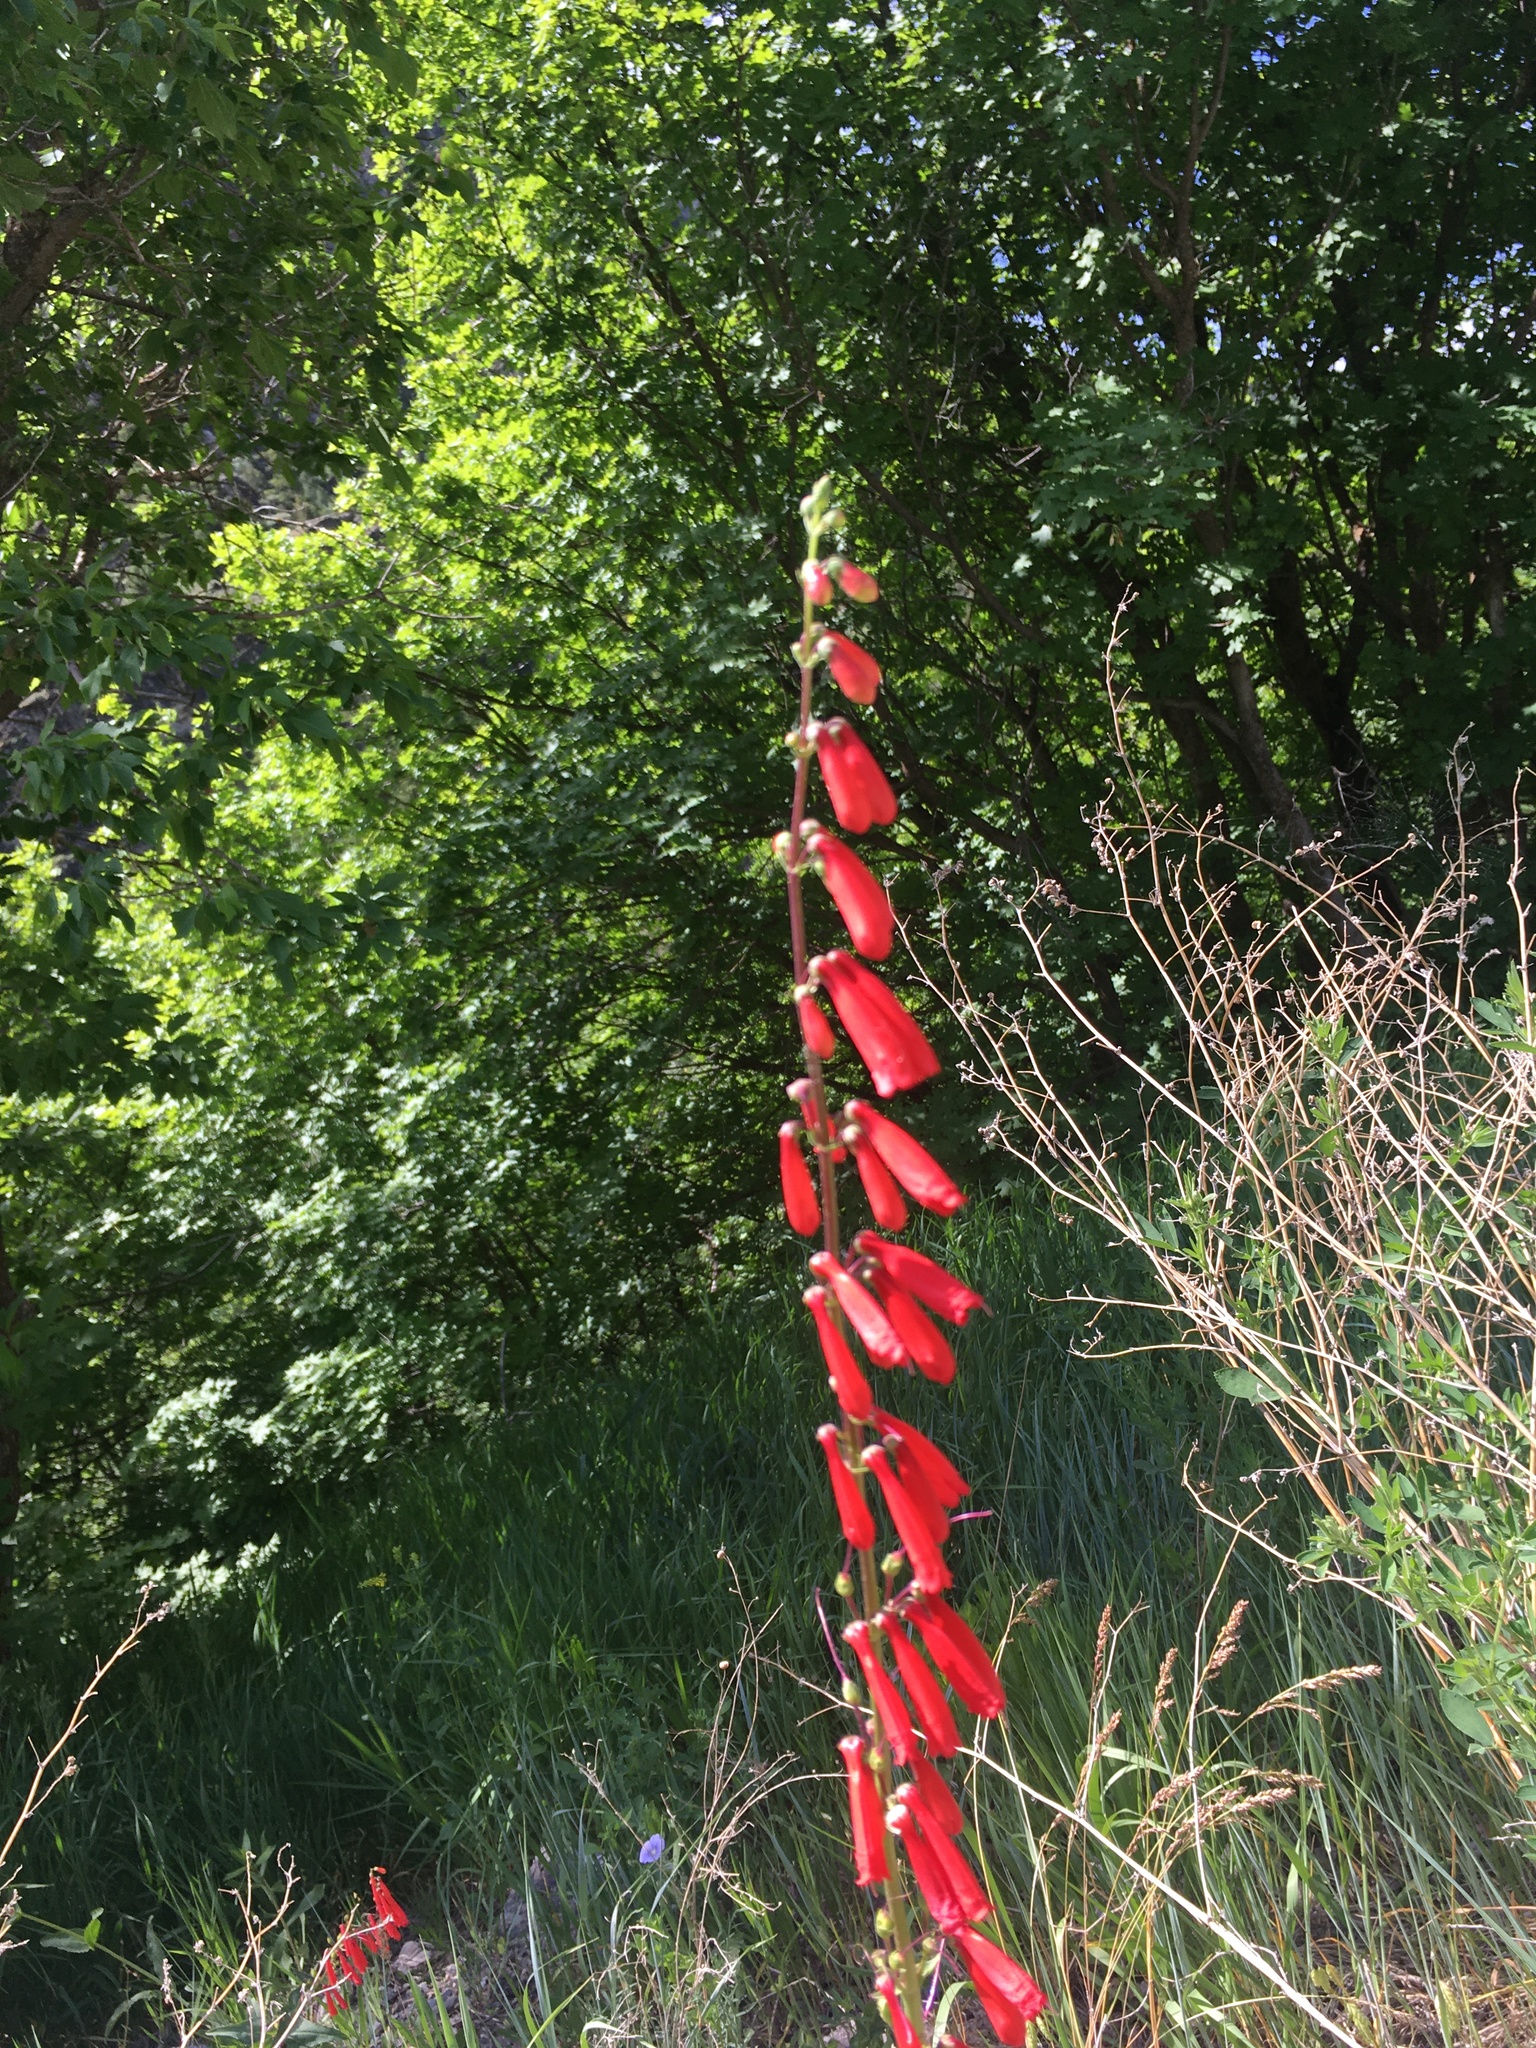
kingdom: Plantae
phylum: Tracheophyta
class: Magnoliopsida
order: Lamiales
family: Plantaginaceae
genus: Penstemon
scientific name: Penstemon eatonii
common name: Eaton's penstemon
